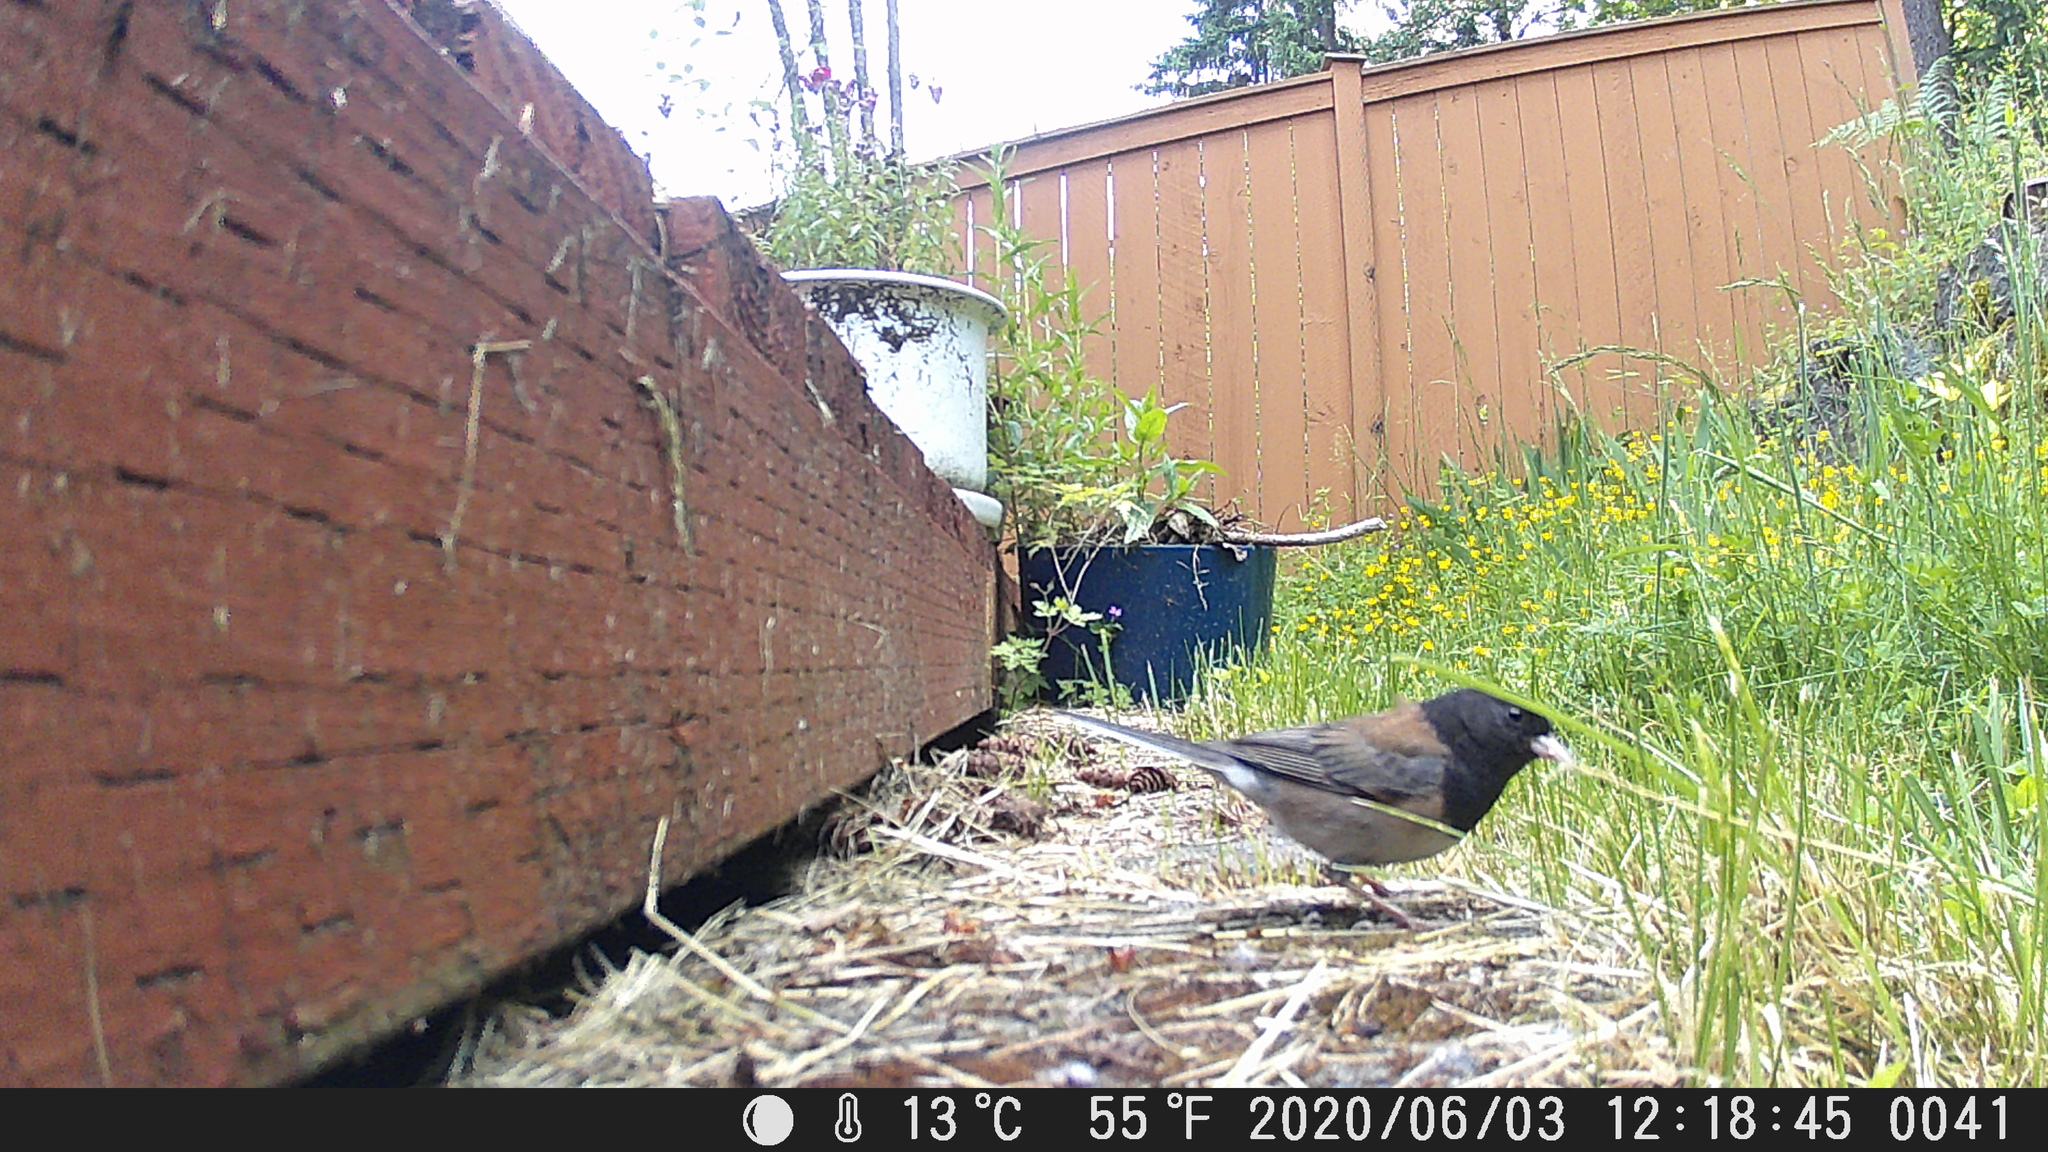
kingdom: Animalia
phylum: Chordata
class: Aves
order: Passeriformes
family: Passerellidae
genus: Junco
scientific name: Junco hyemalis
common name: Dark-eyed junco
